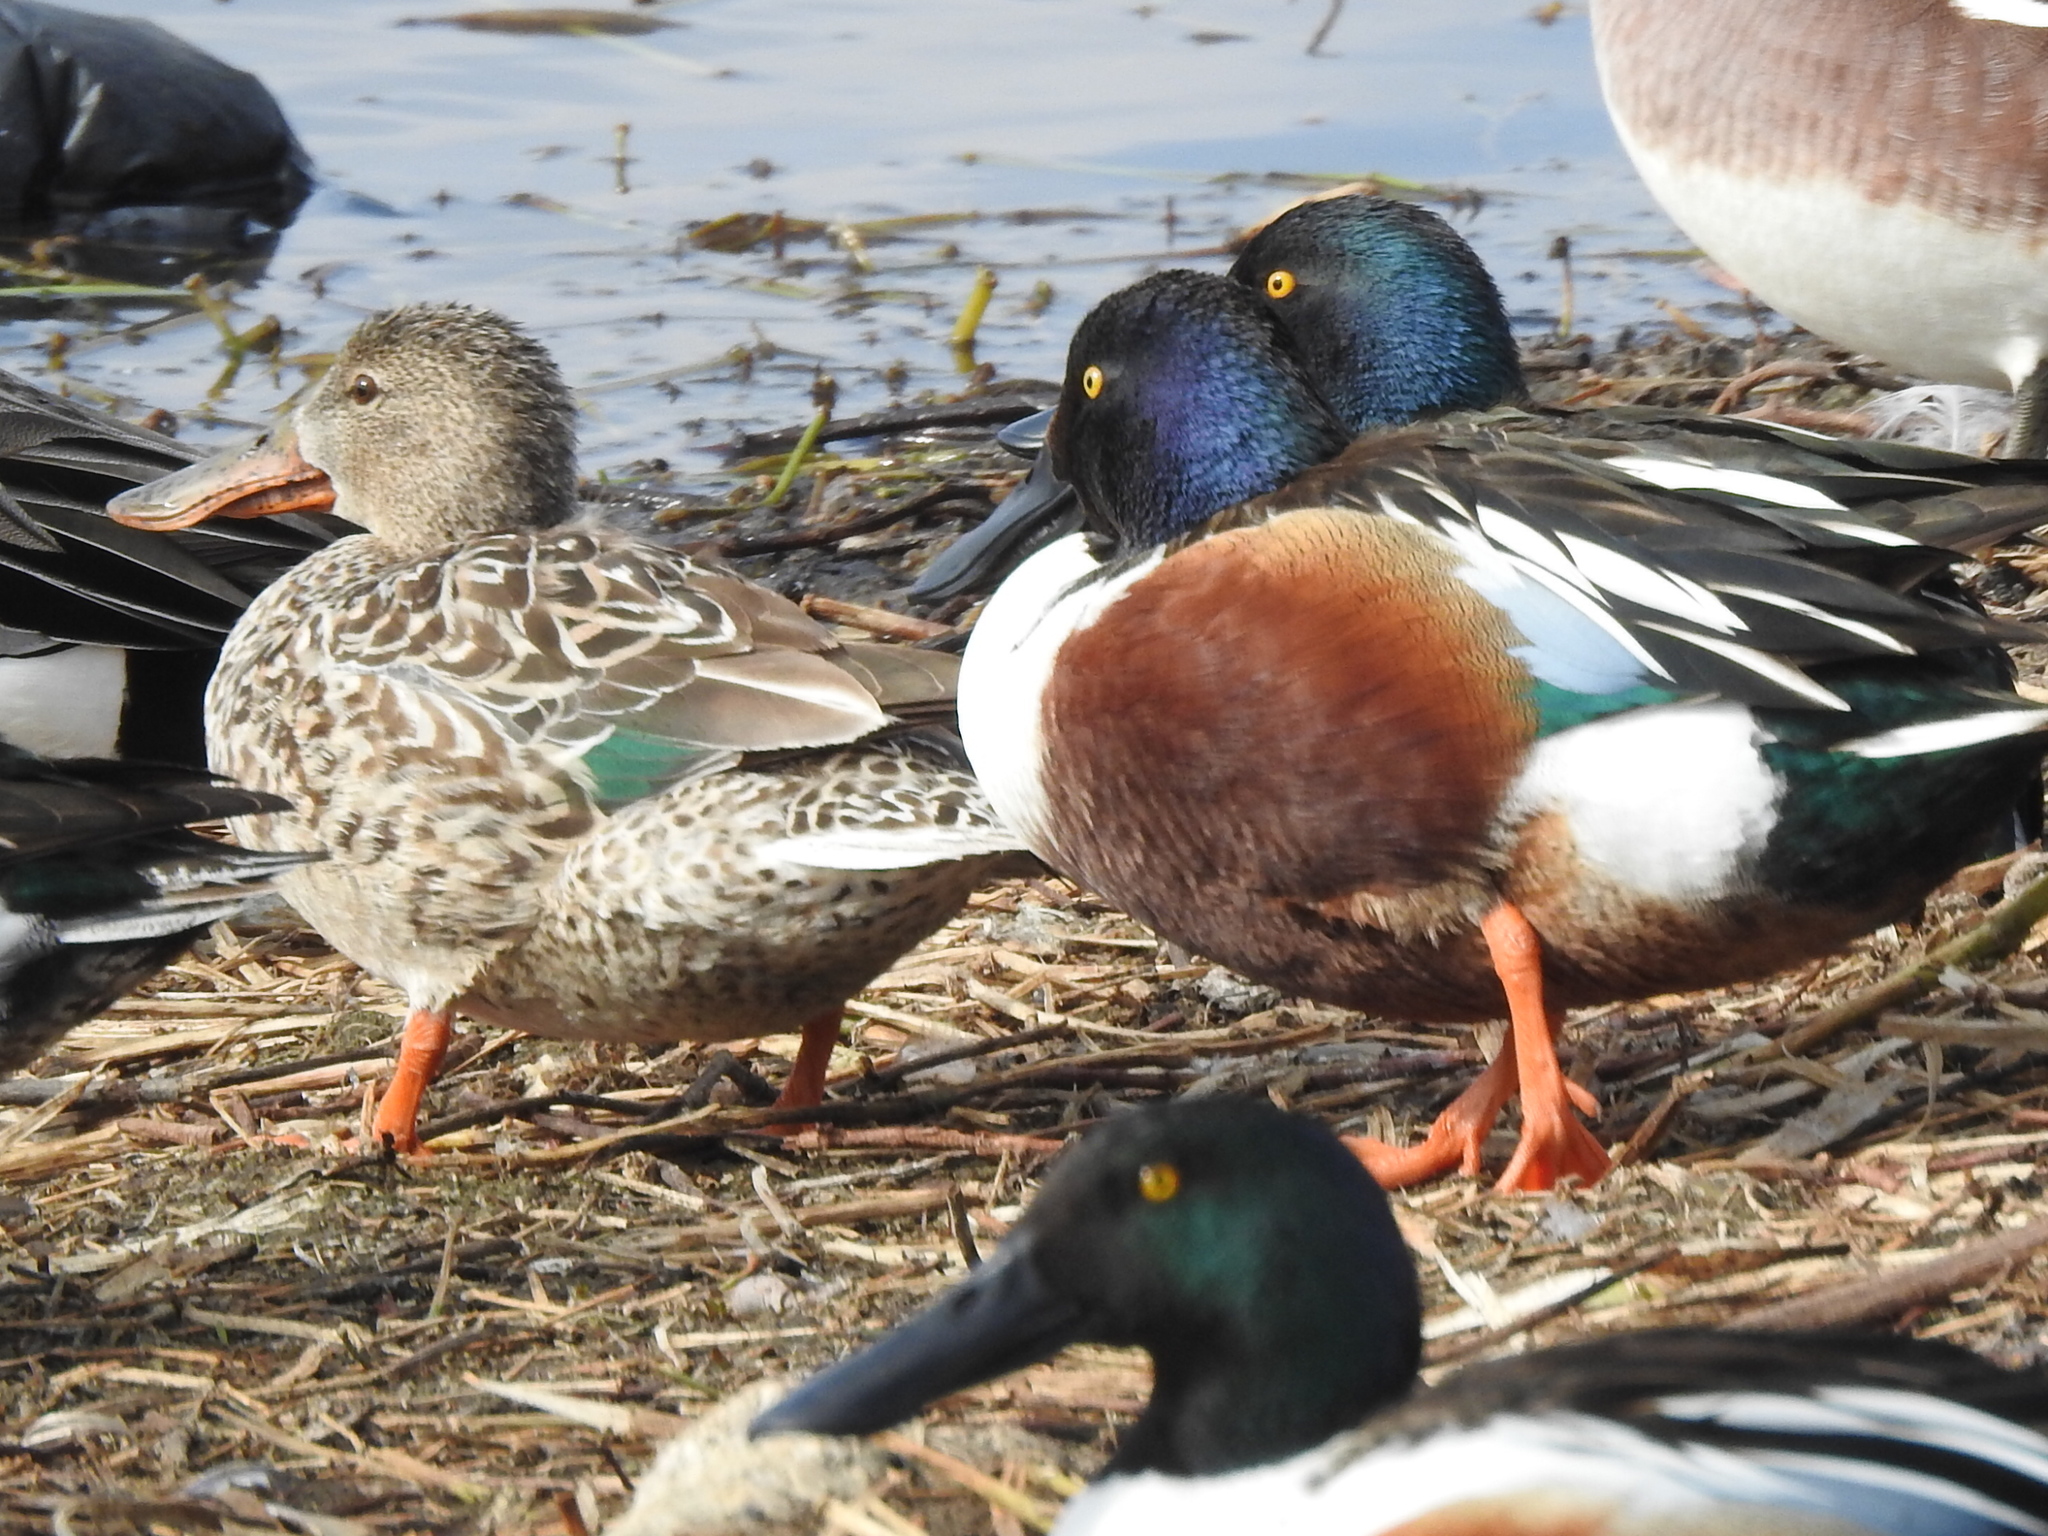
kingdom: Animalia
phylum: Chordata
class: Aves
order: Anseriformes
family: Anatidae
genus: Spatula
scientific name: Spatula clypeata
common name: Northern shoveler
